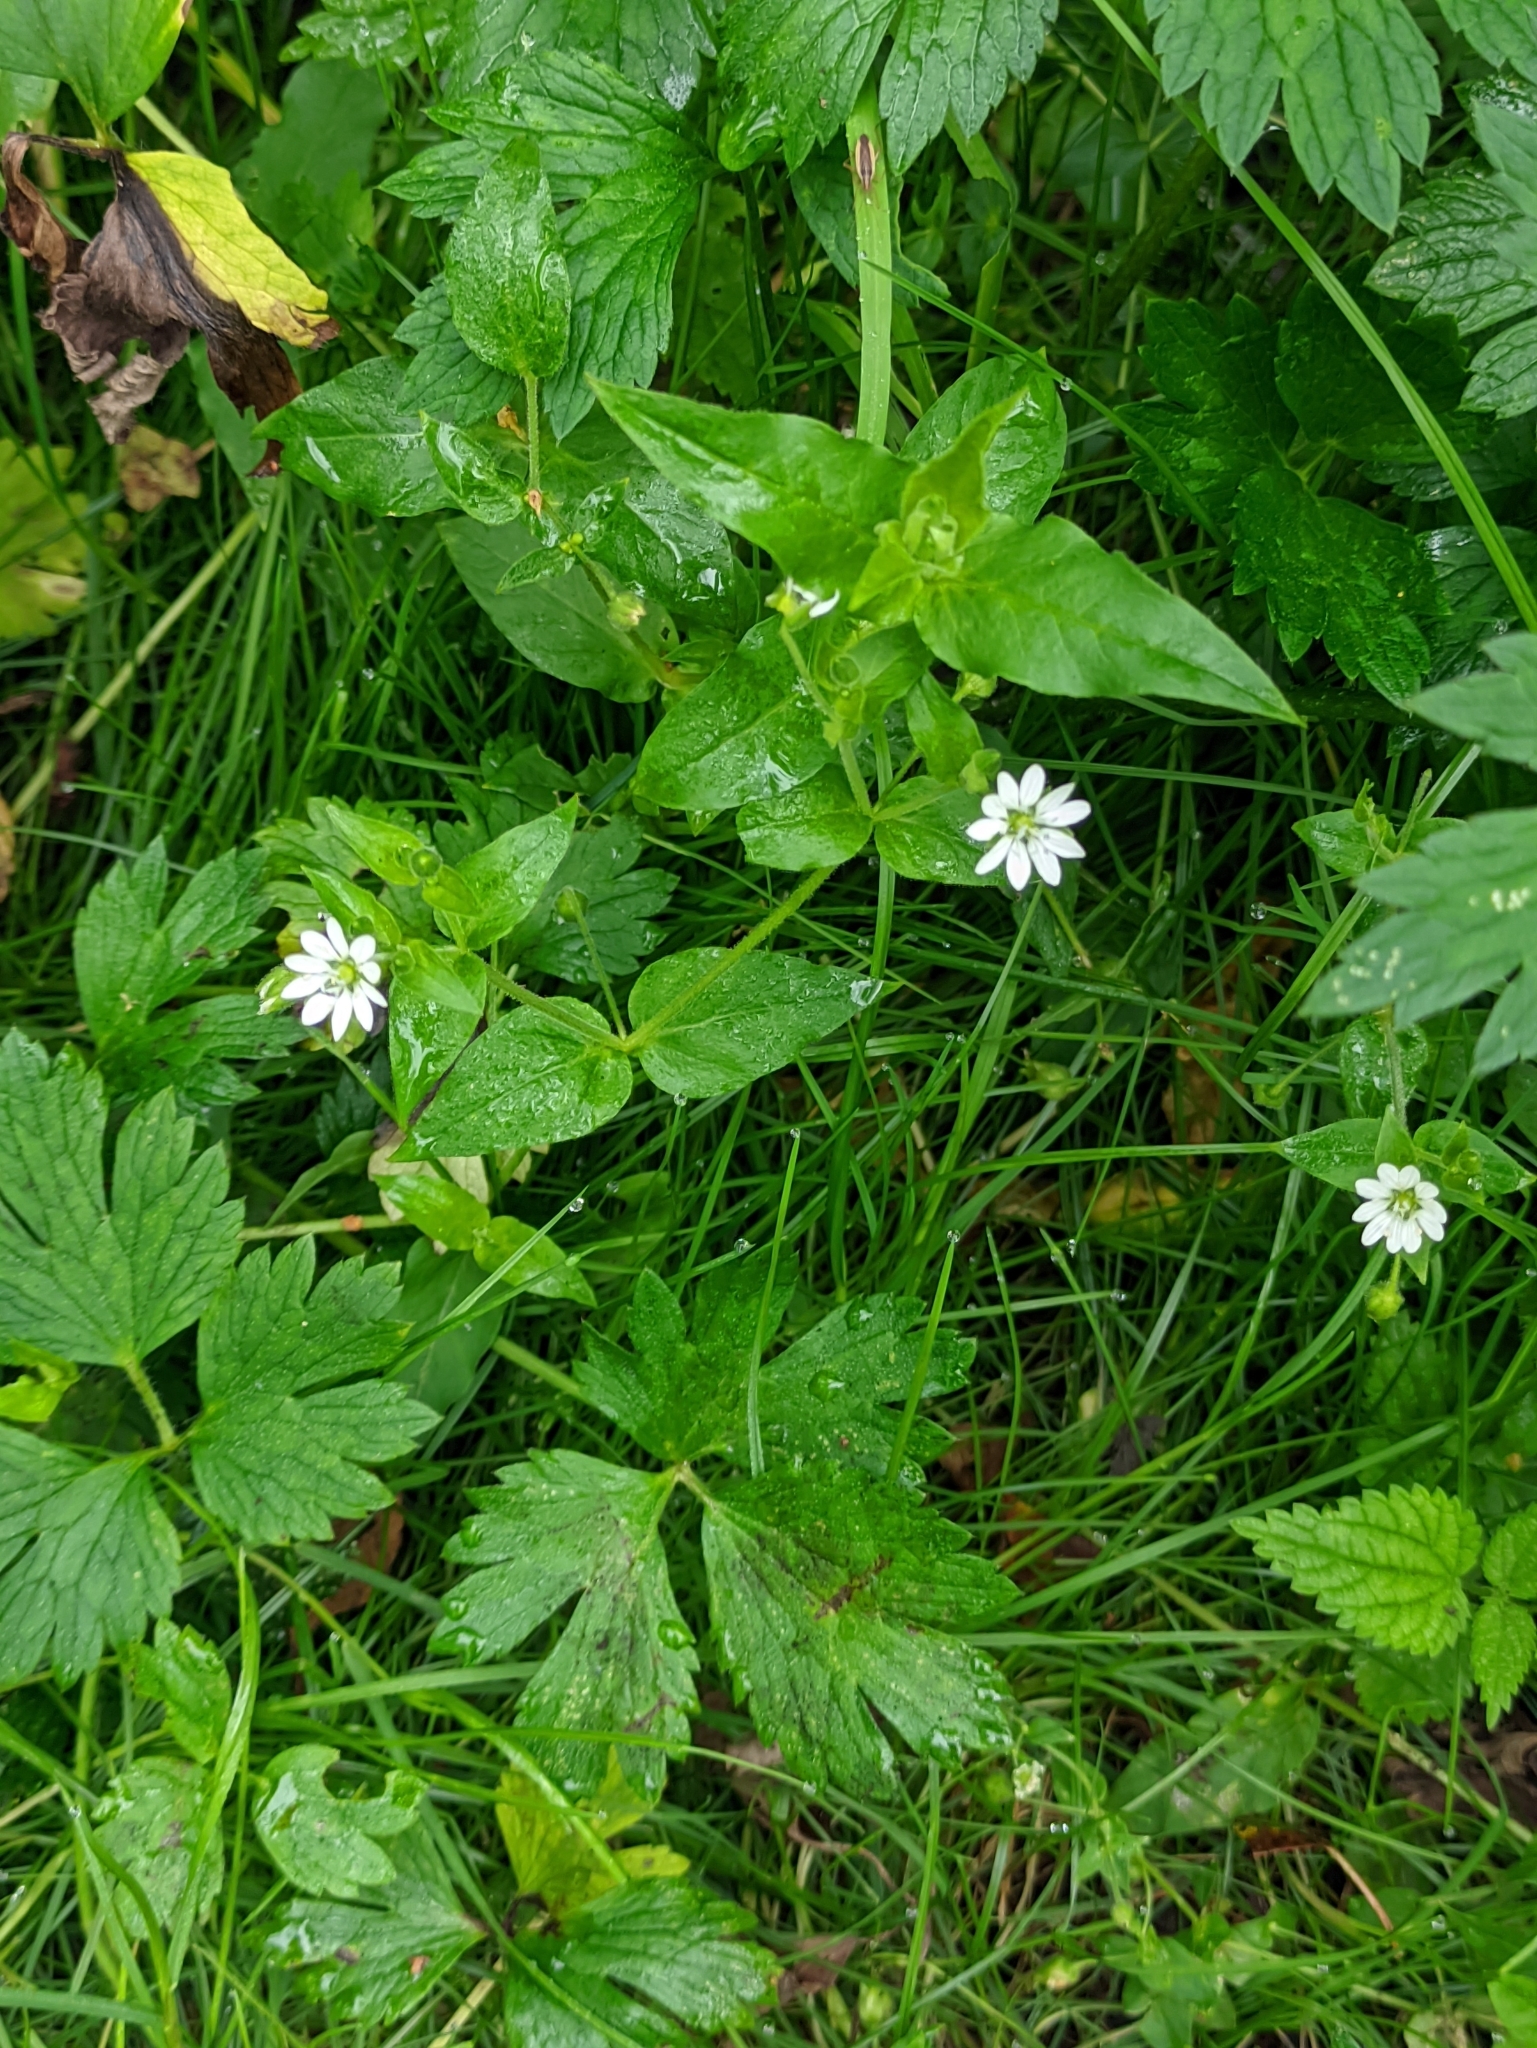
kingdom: Plantae
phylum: Tracheophyta
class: Magnoliopsida
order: Caryophyllales
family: Caryophyllaceae
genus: Stellaria
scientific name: Stellaria aquatica
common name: Water chickweed
